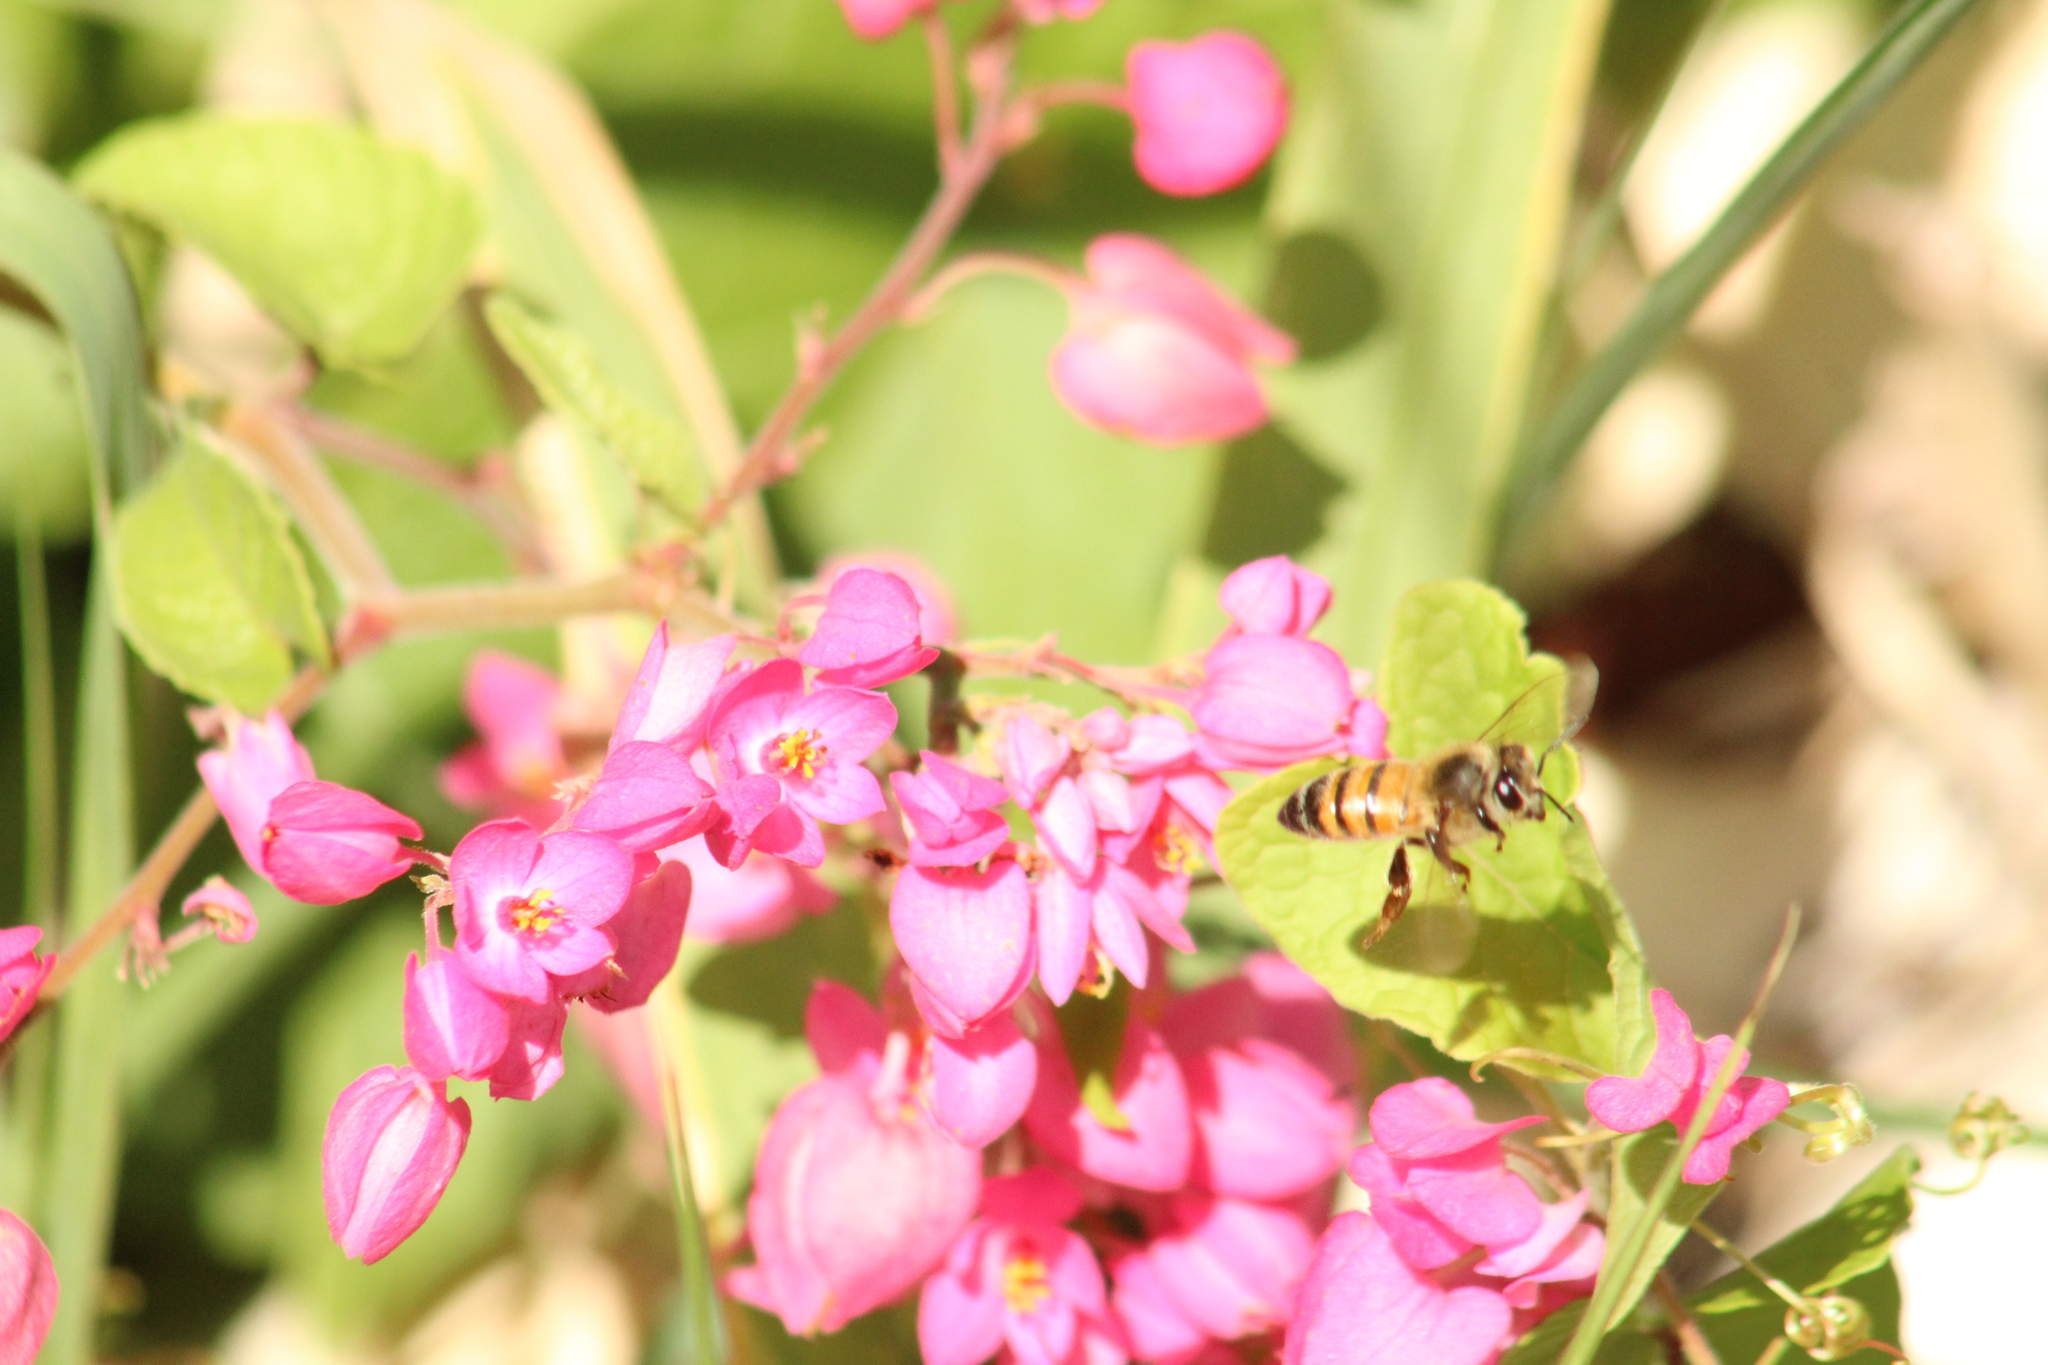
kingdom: Animalia
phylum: Arthropoda
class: Insecta
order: Hymenoptera
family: Apidae
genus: Apis
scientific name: Apis mellifera
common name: Honey bee
